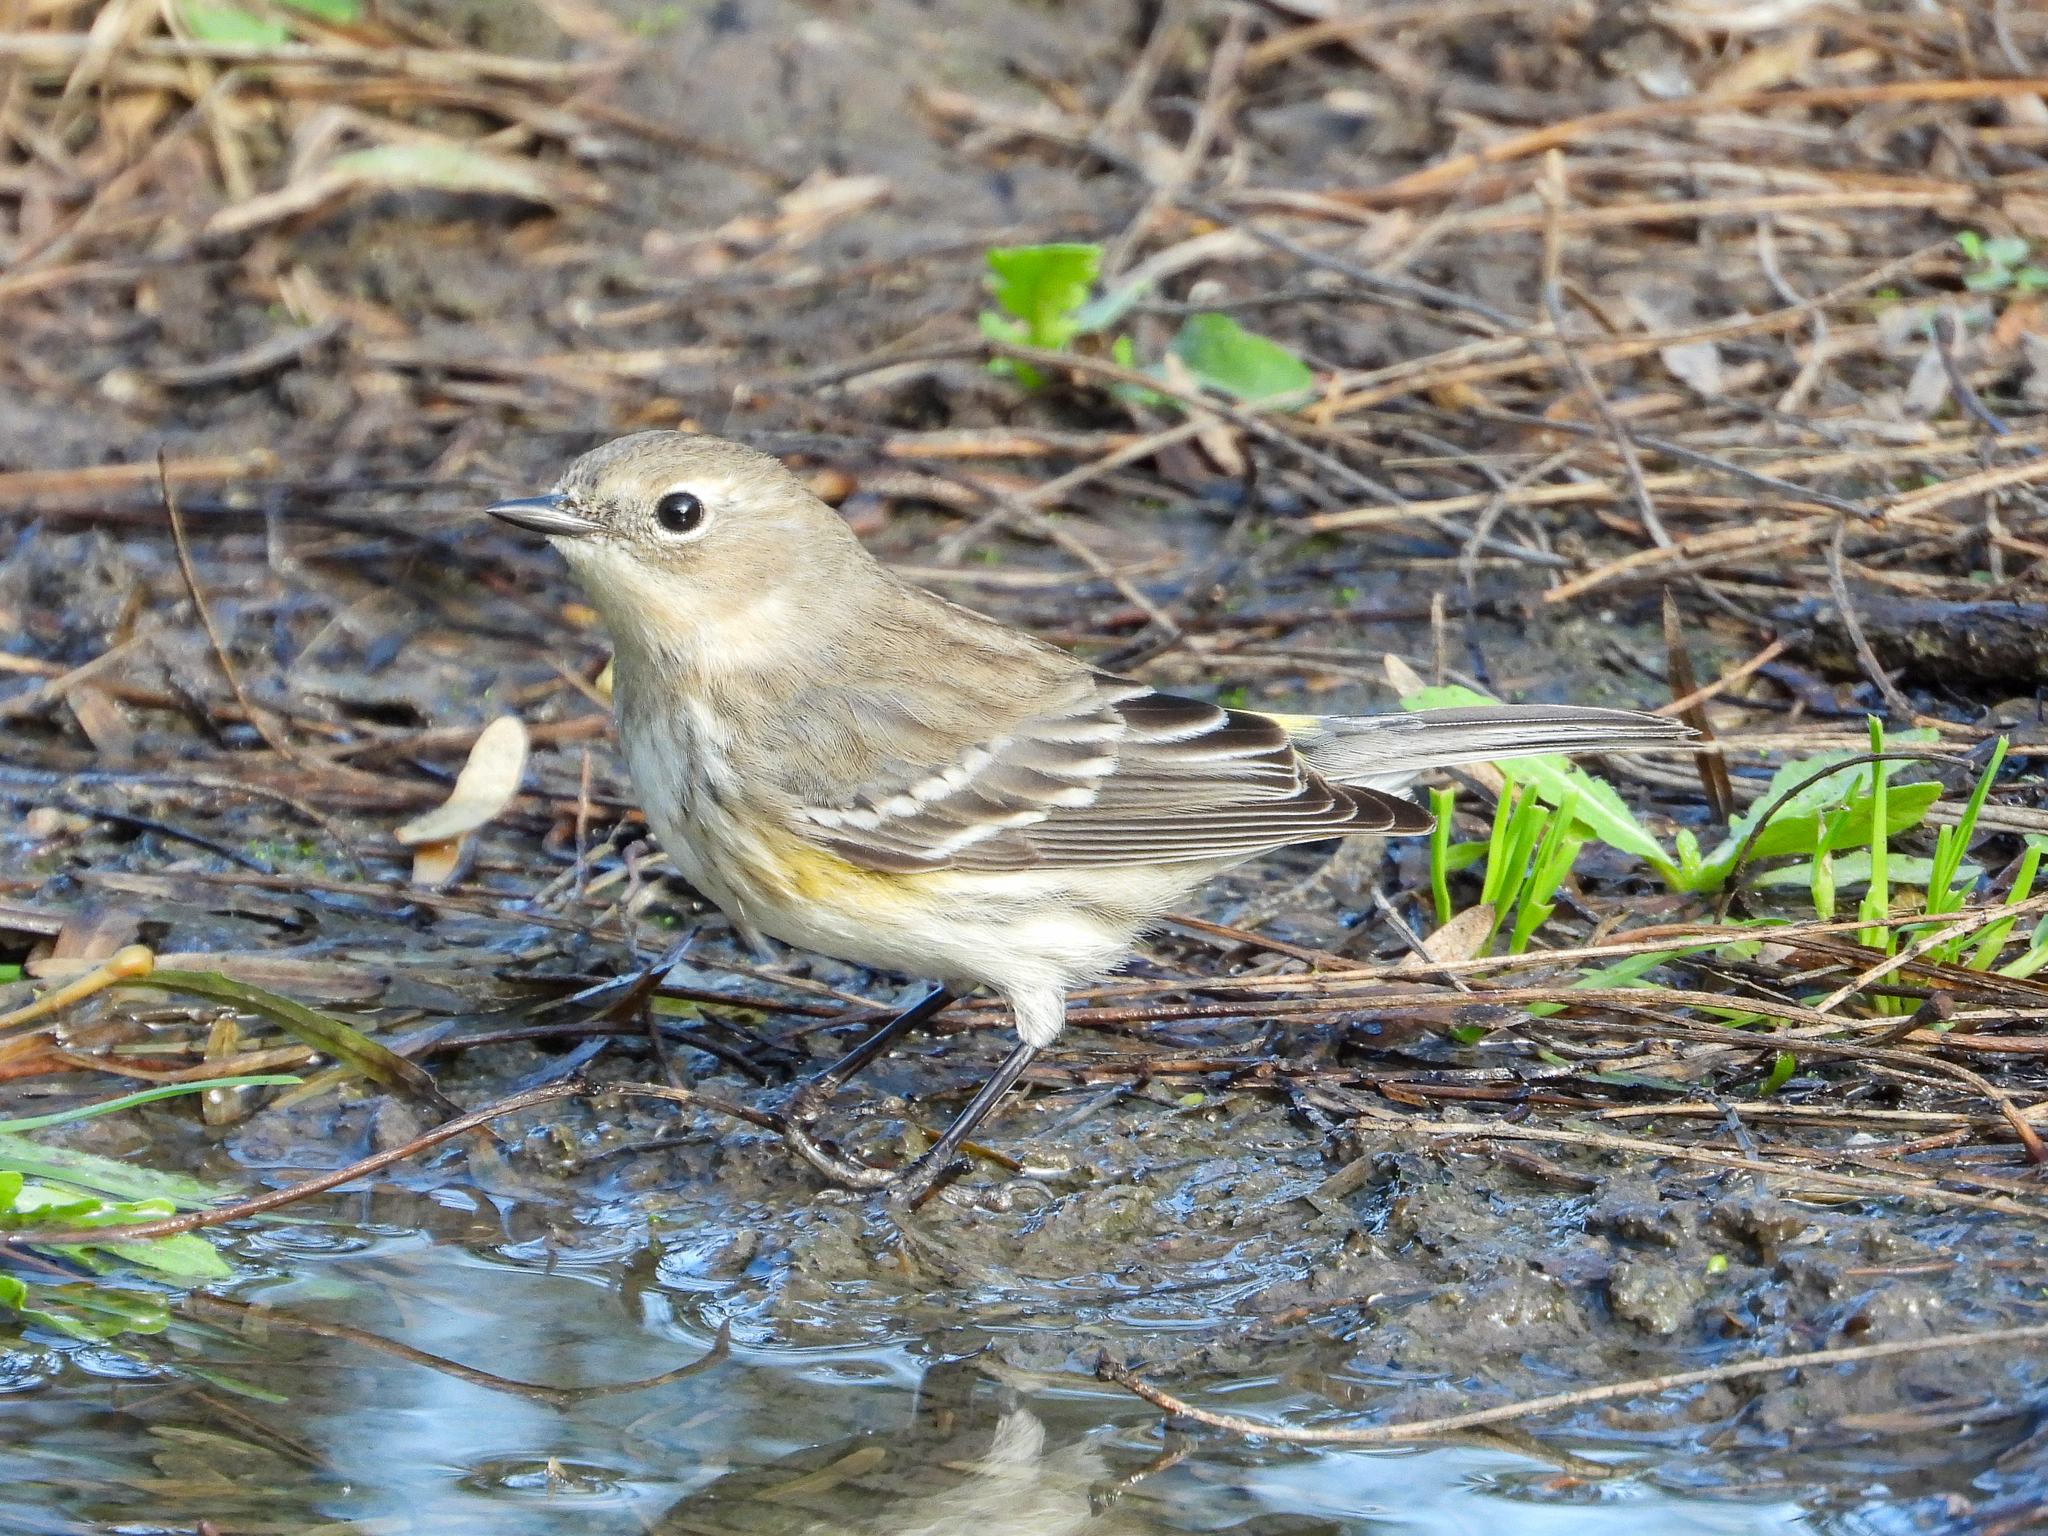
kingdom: Animalia
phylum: Chordata
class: Aves
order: Passeriformes
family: Parulidae
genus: Setophaga
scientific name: Setophaga coronata
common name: Myrtle warbler
